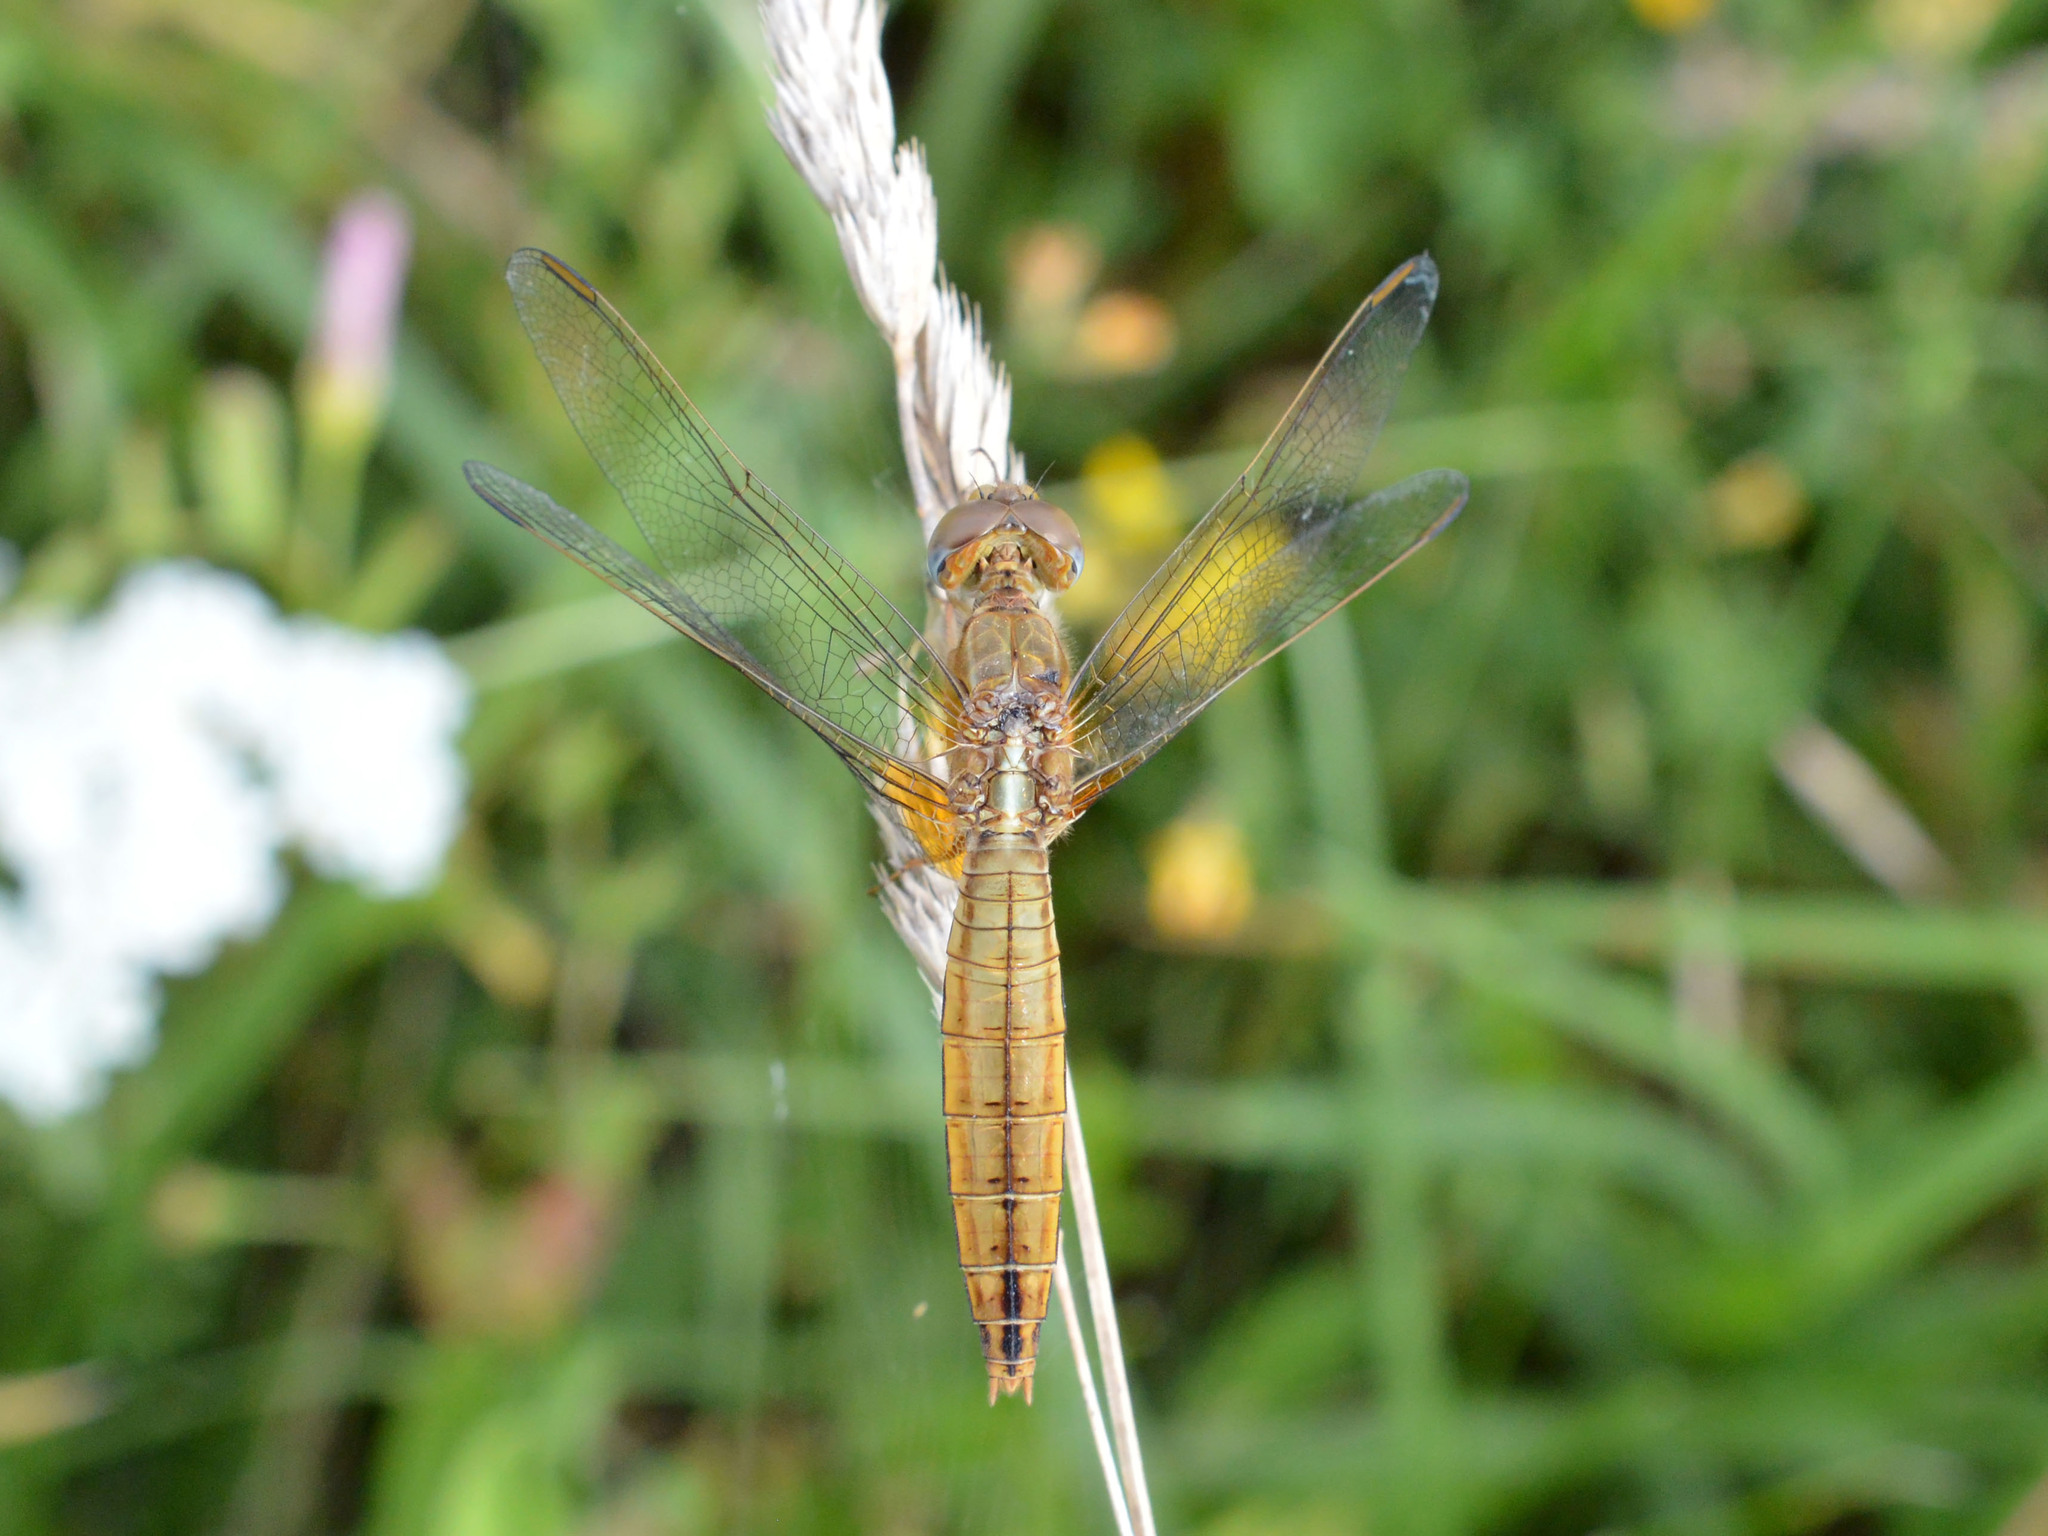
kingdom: Animalia
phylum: Arthropoda
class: Insecta
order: Odonata
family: Libellulidae
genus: Crocothemis
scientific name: Crocothemis erythraea
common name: Scarlet dragonfly
